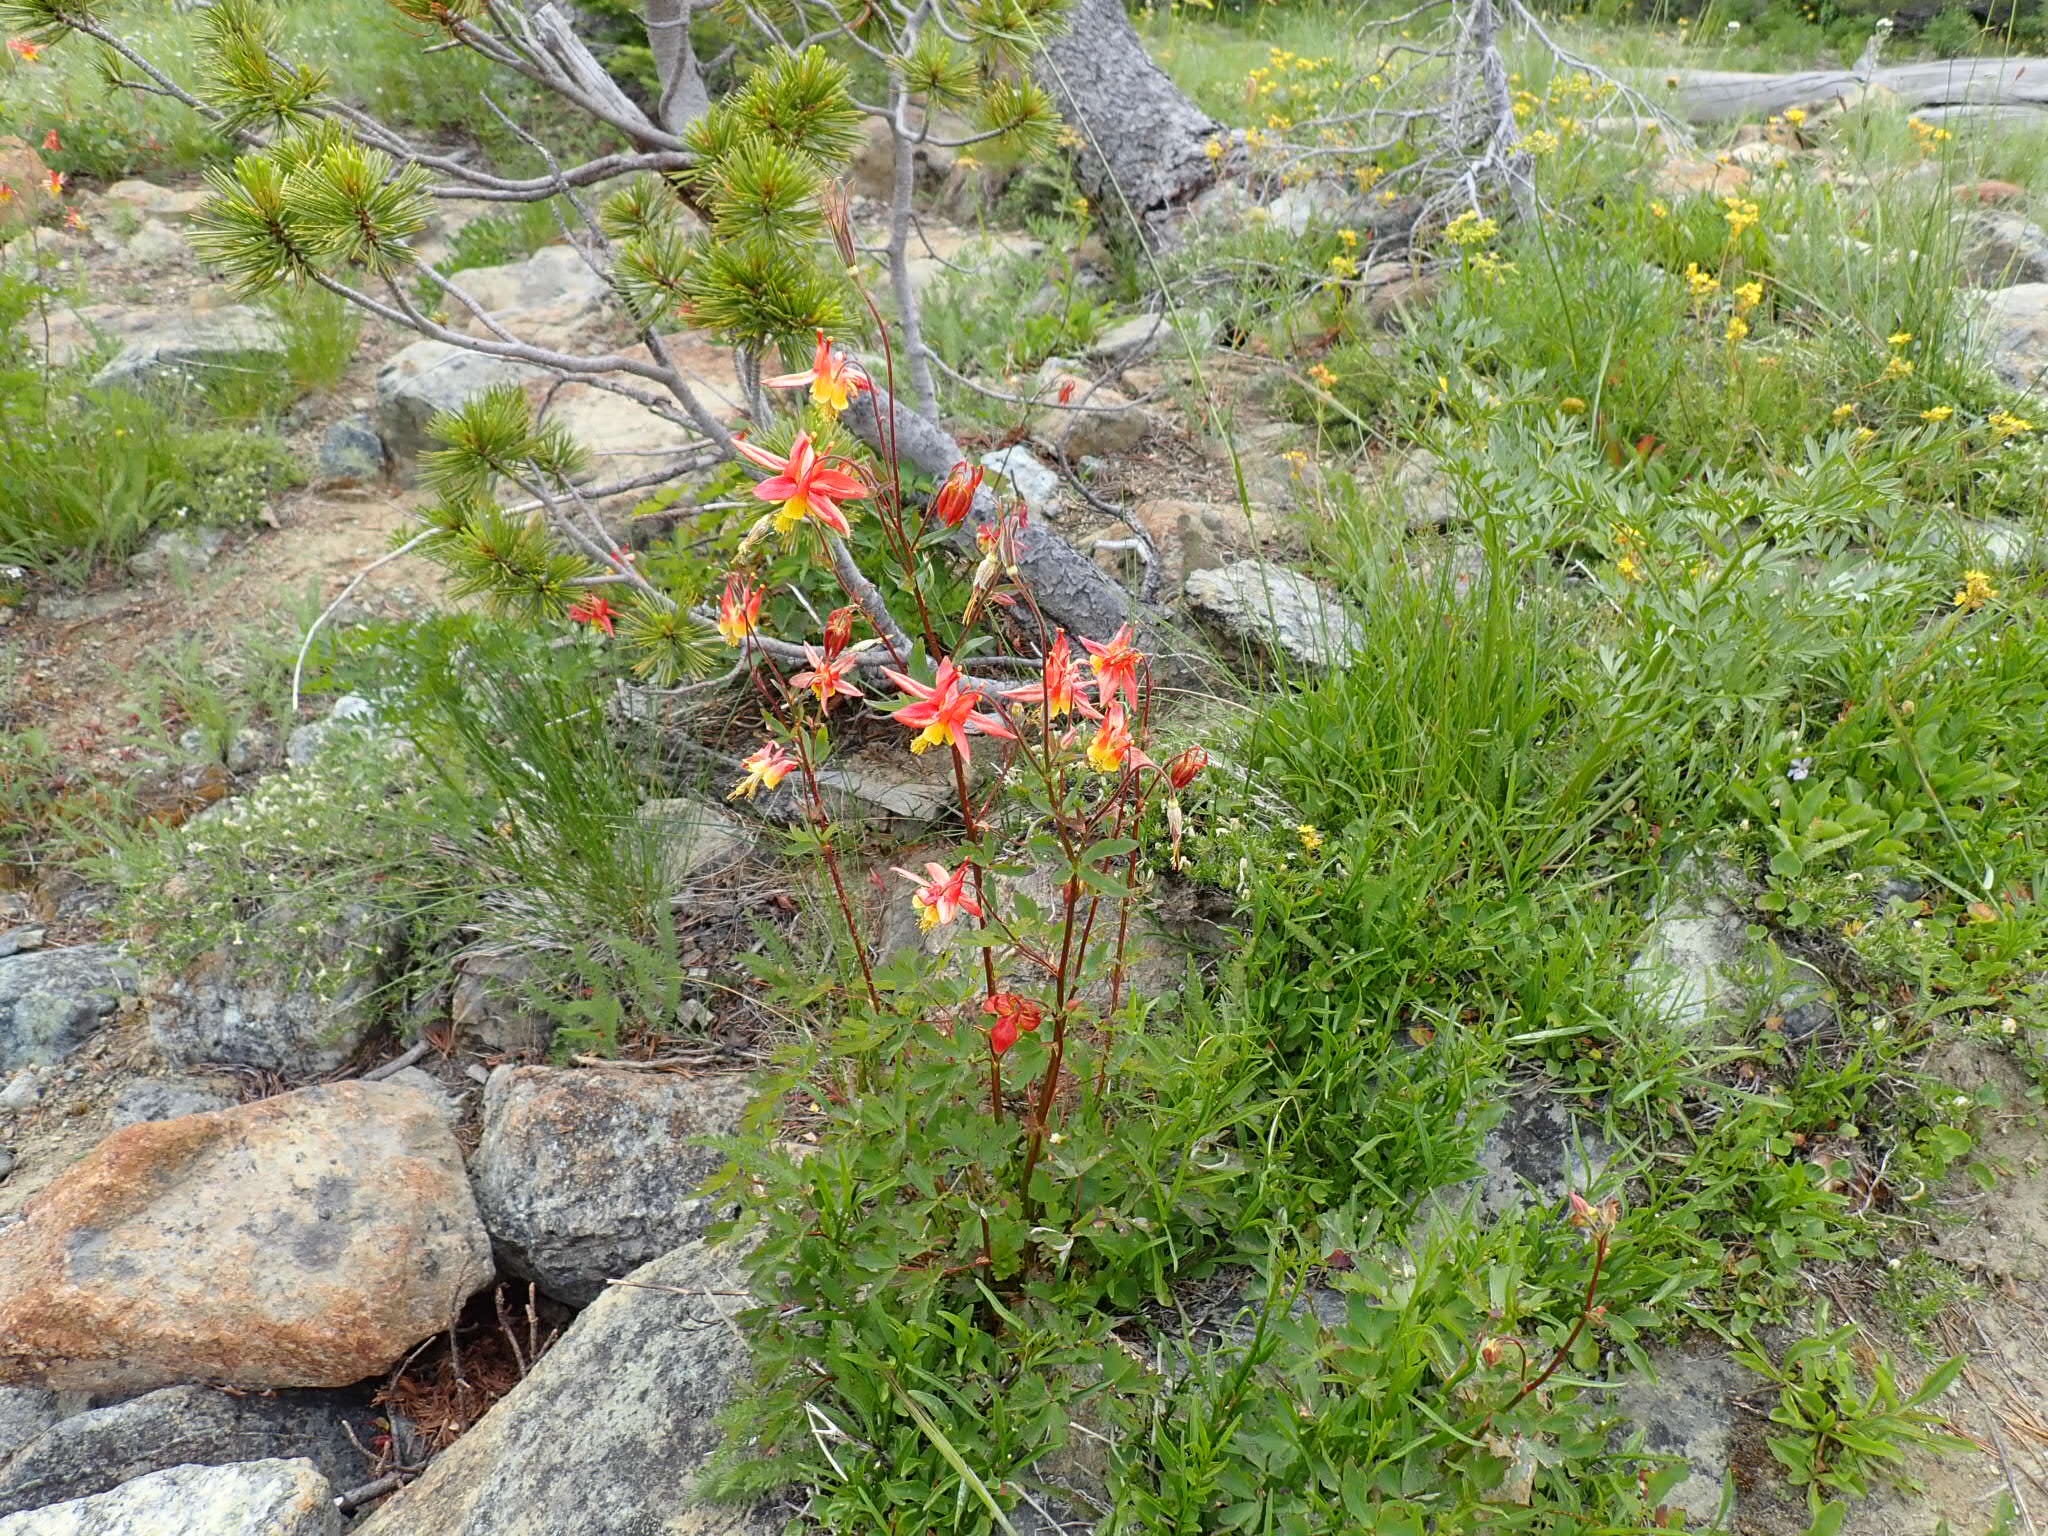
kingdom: Plantae
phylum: Tracheophyta
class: Magnoliopsida
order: Ranunculales
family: Ranunculaceae
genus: Aquilegia
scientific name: Aquilegia formosa
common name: Sitka columbine
